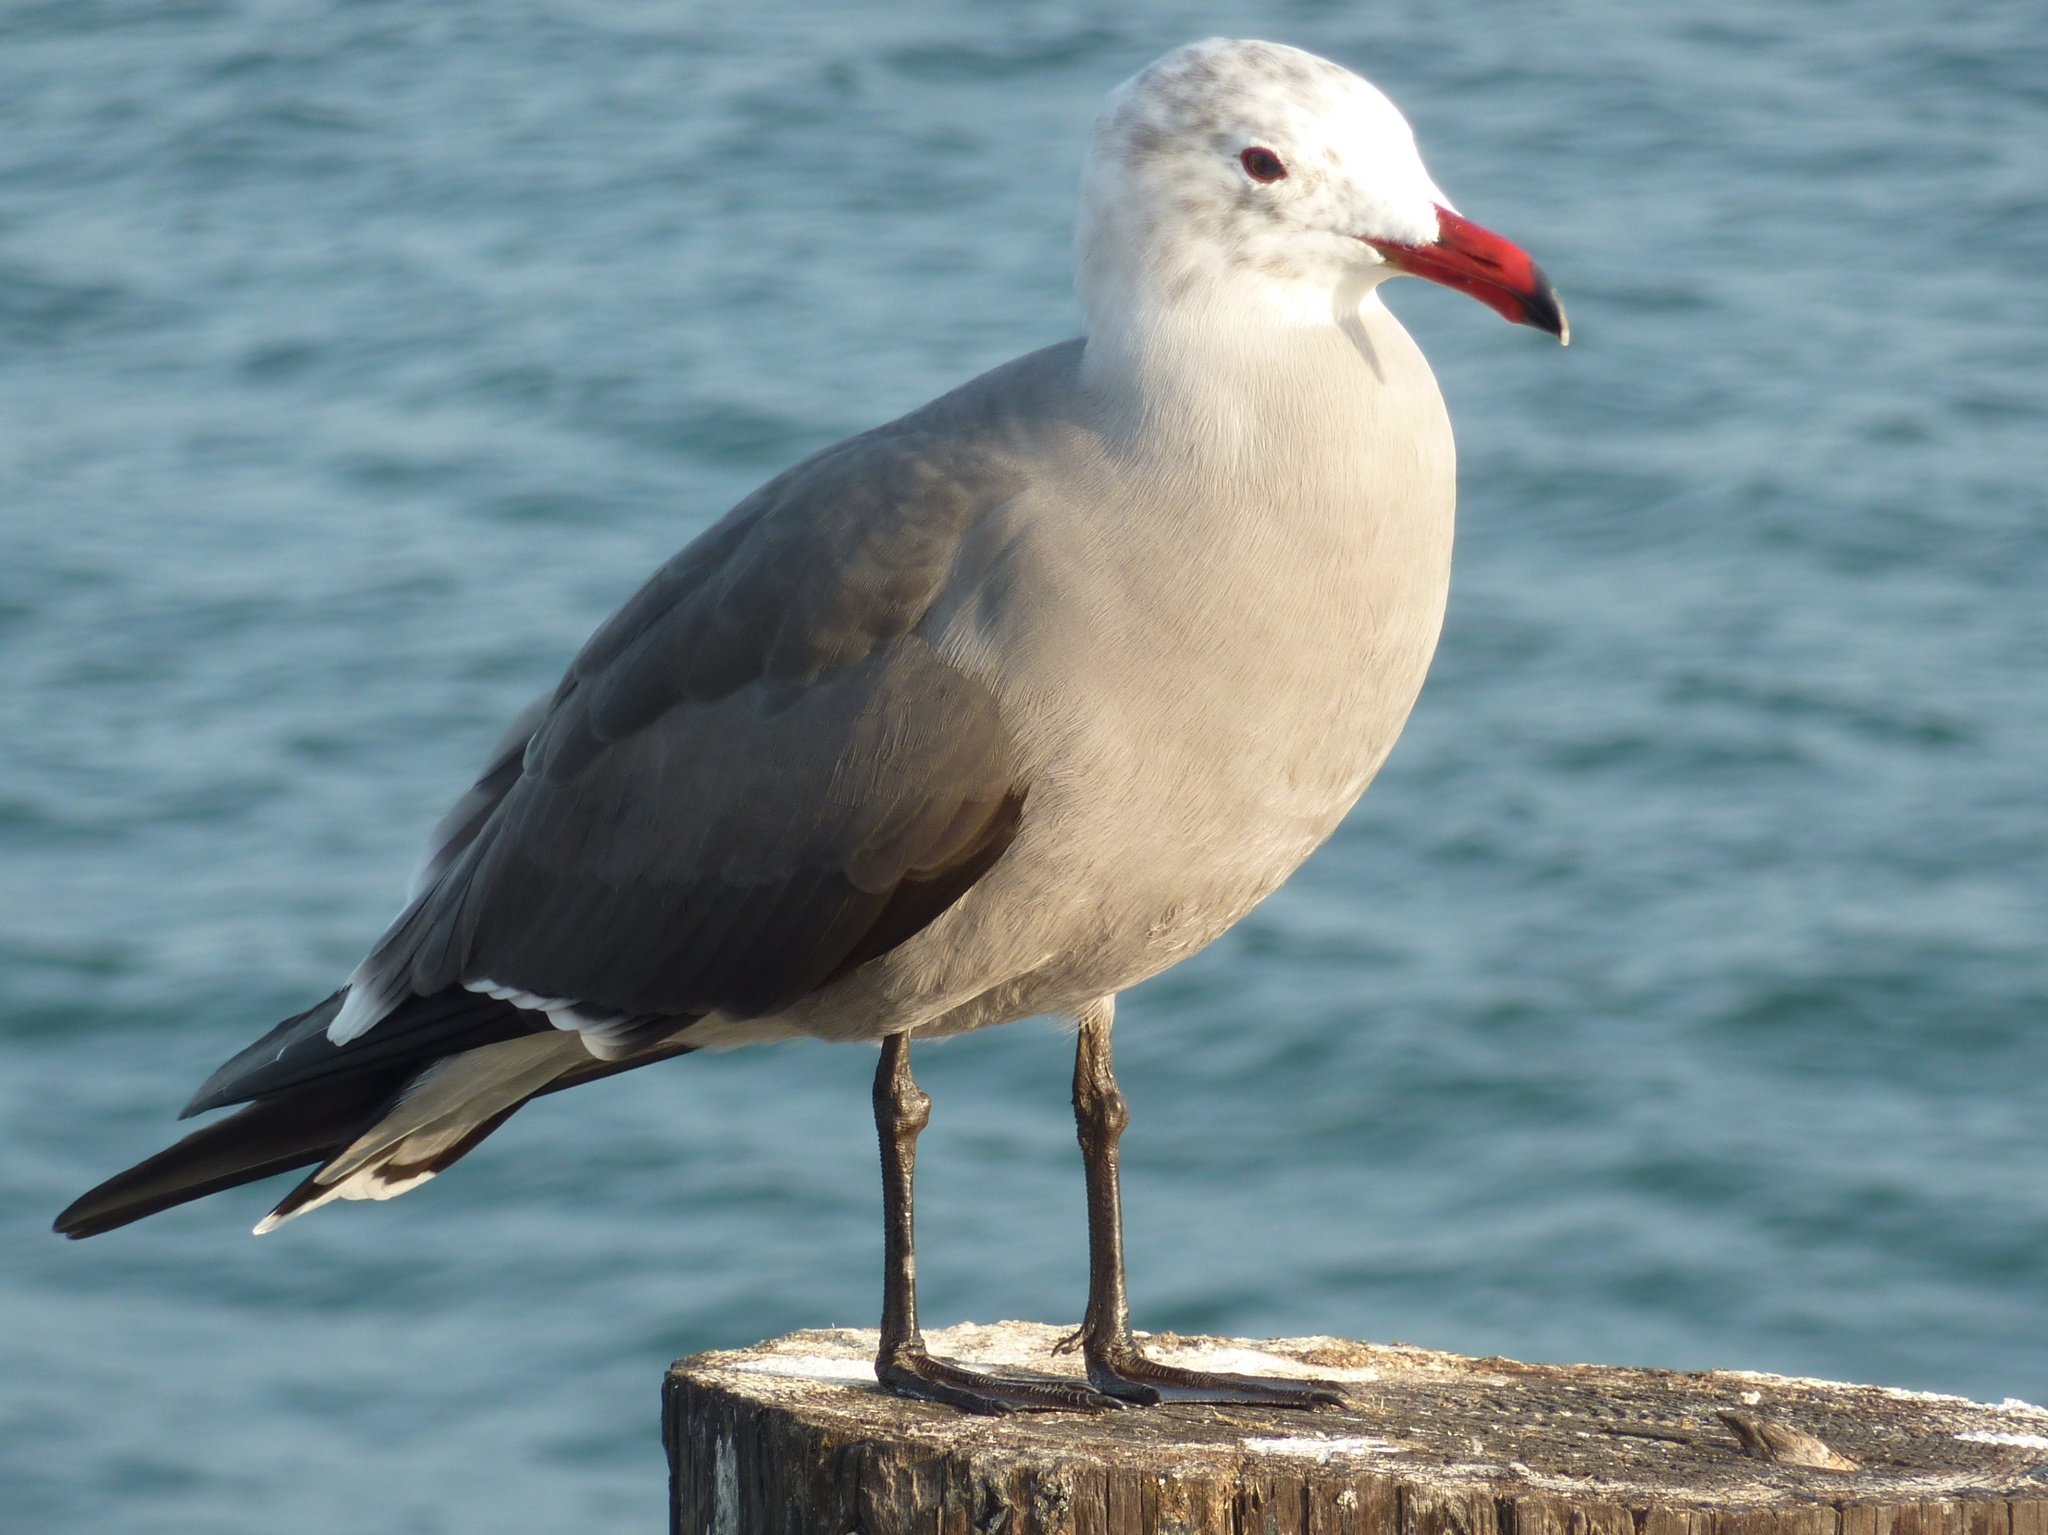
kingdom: Animalia
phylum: Chordata
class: Aves
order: Charadriiformes
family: Laridae
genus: Larus
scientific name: Larus heermanni
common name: Heermann's gull
